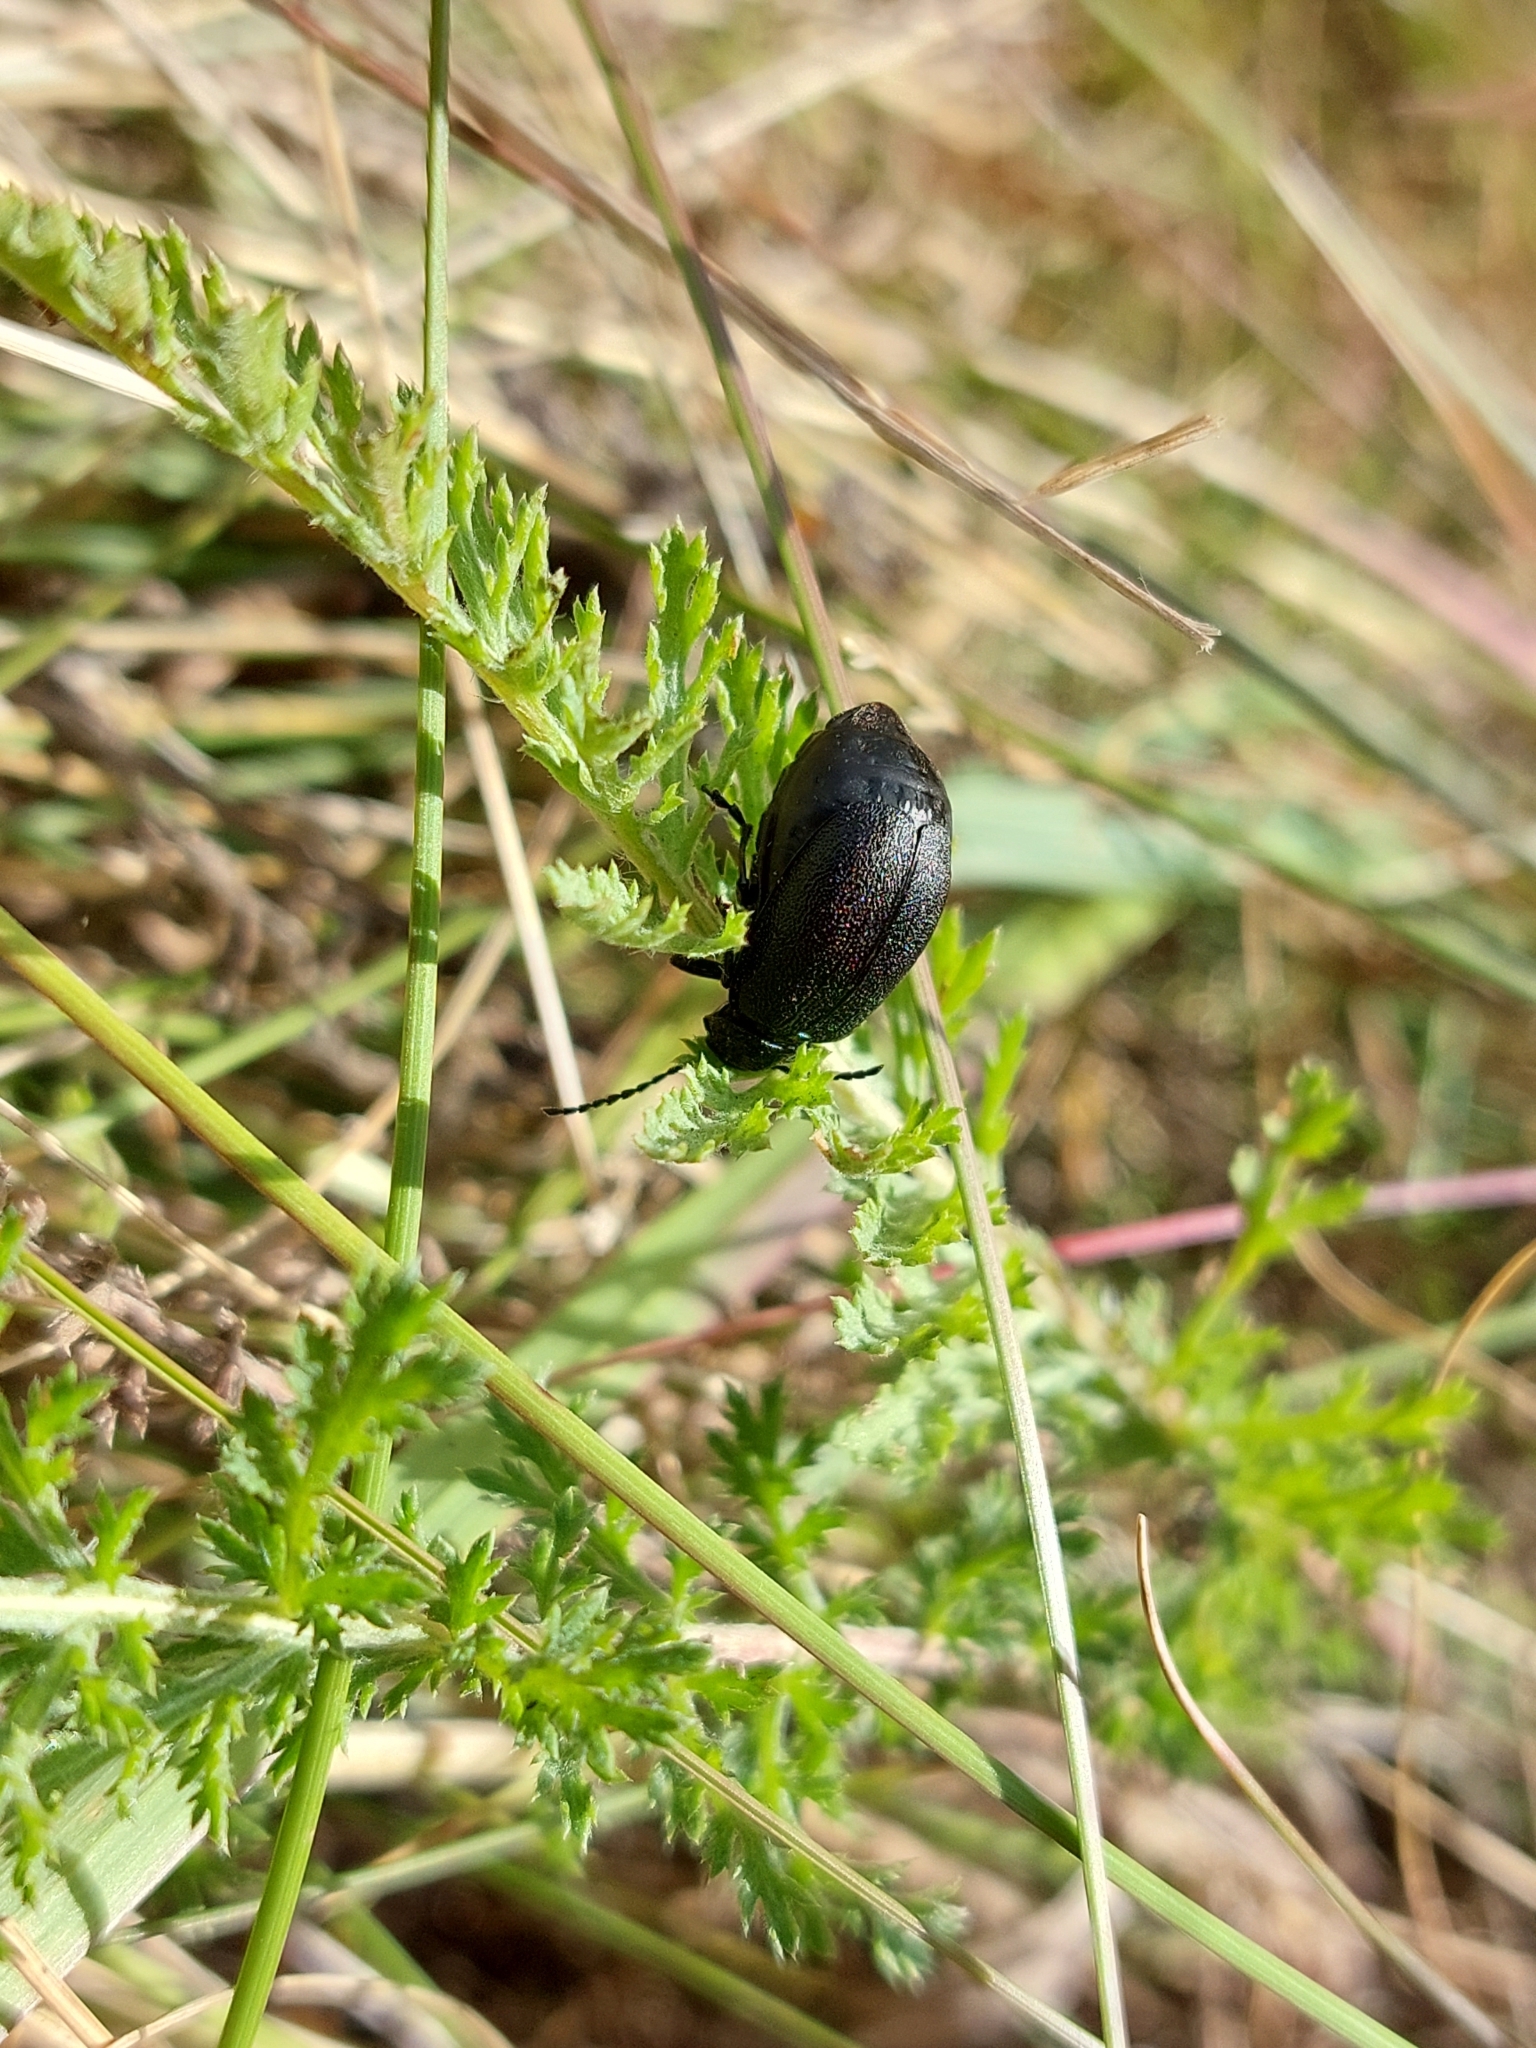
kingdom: Animalia
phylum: Arthropoda
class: Insecta
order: Coleoptera
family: Chrysomelidae
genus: Galeruca
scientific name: Galeruca tanaceti
